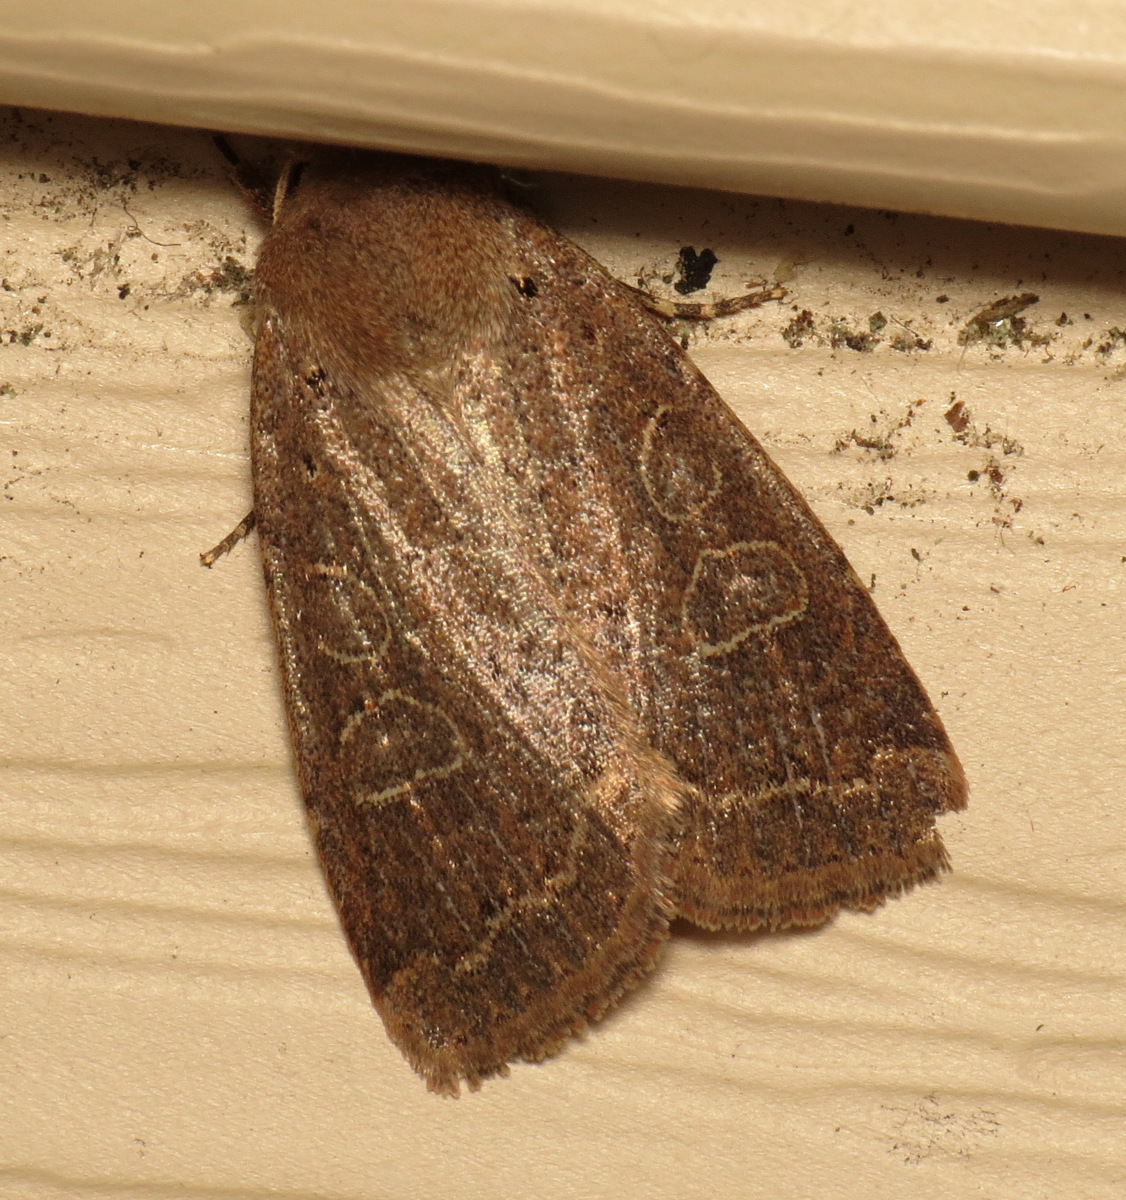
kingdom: Animalia
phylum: Arthropoda
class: Insecta
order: Lepidoptera
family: Noctuidae
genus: Kocakina
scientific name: Kocakina fidelis
